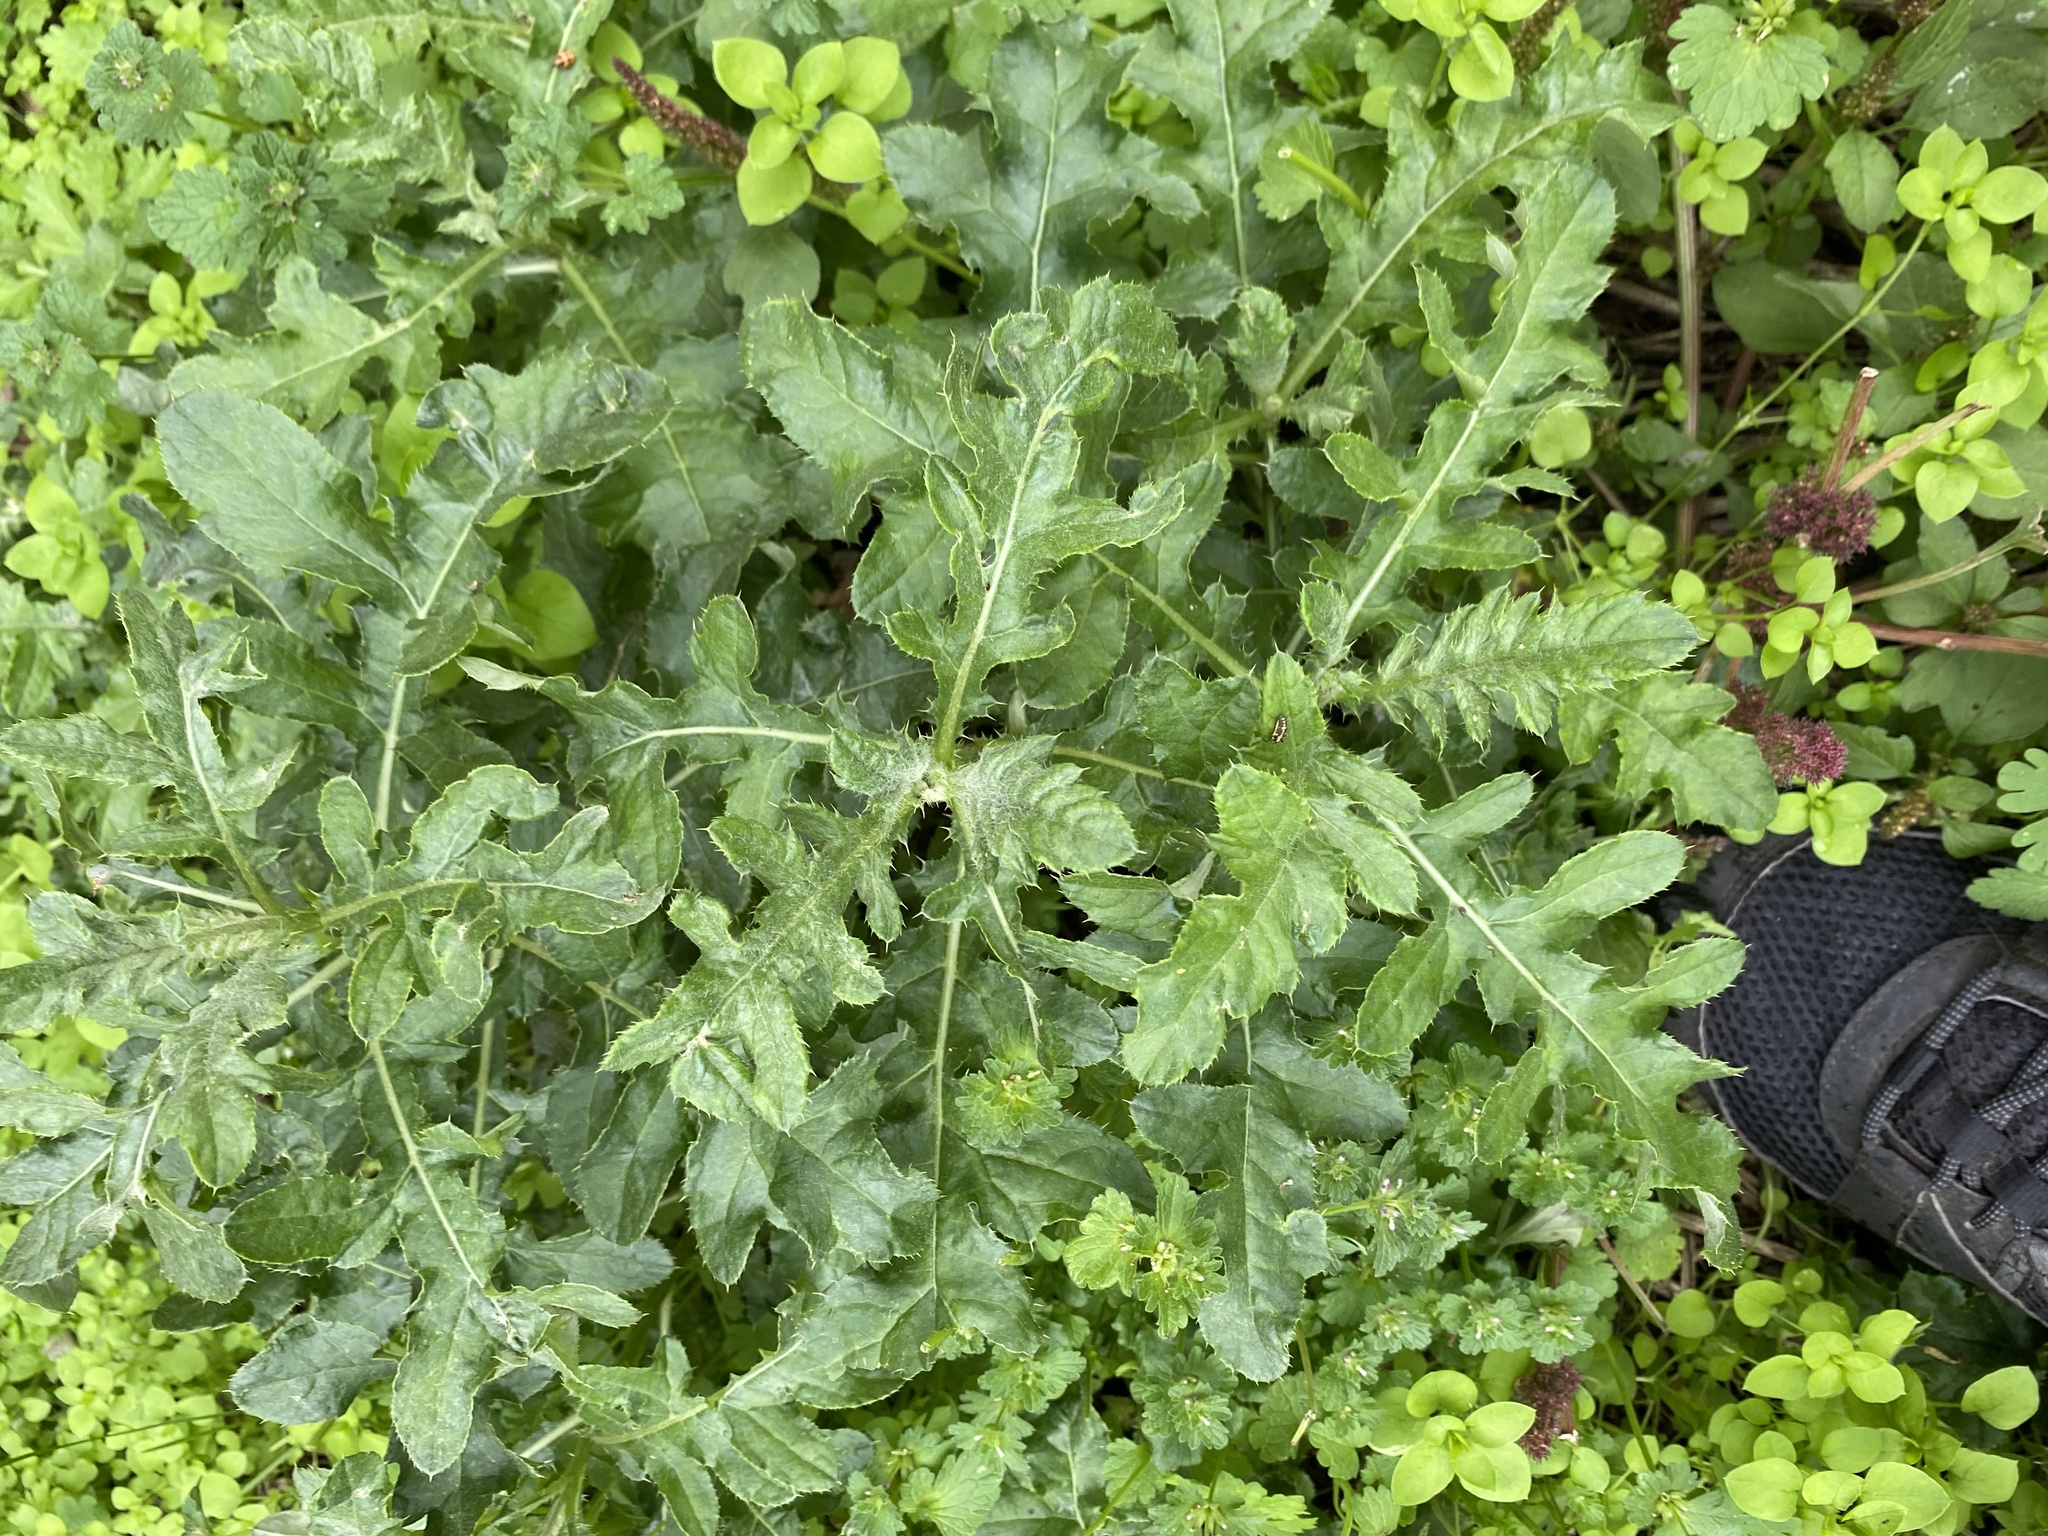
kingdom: Plantae
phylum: Tracheophyta
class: Magnoliopsida
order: Asterales
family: Asteraceae
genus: Cirsium
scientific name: Cirsium arvense
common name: Creeping thistle
